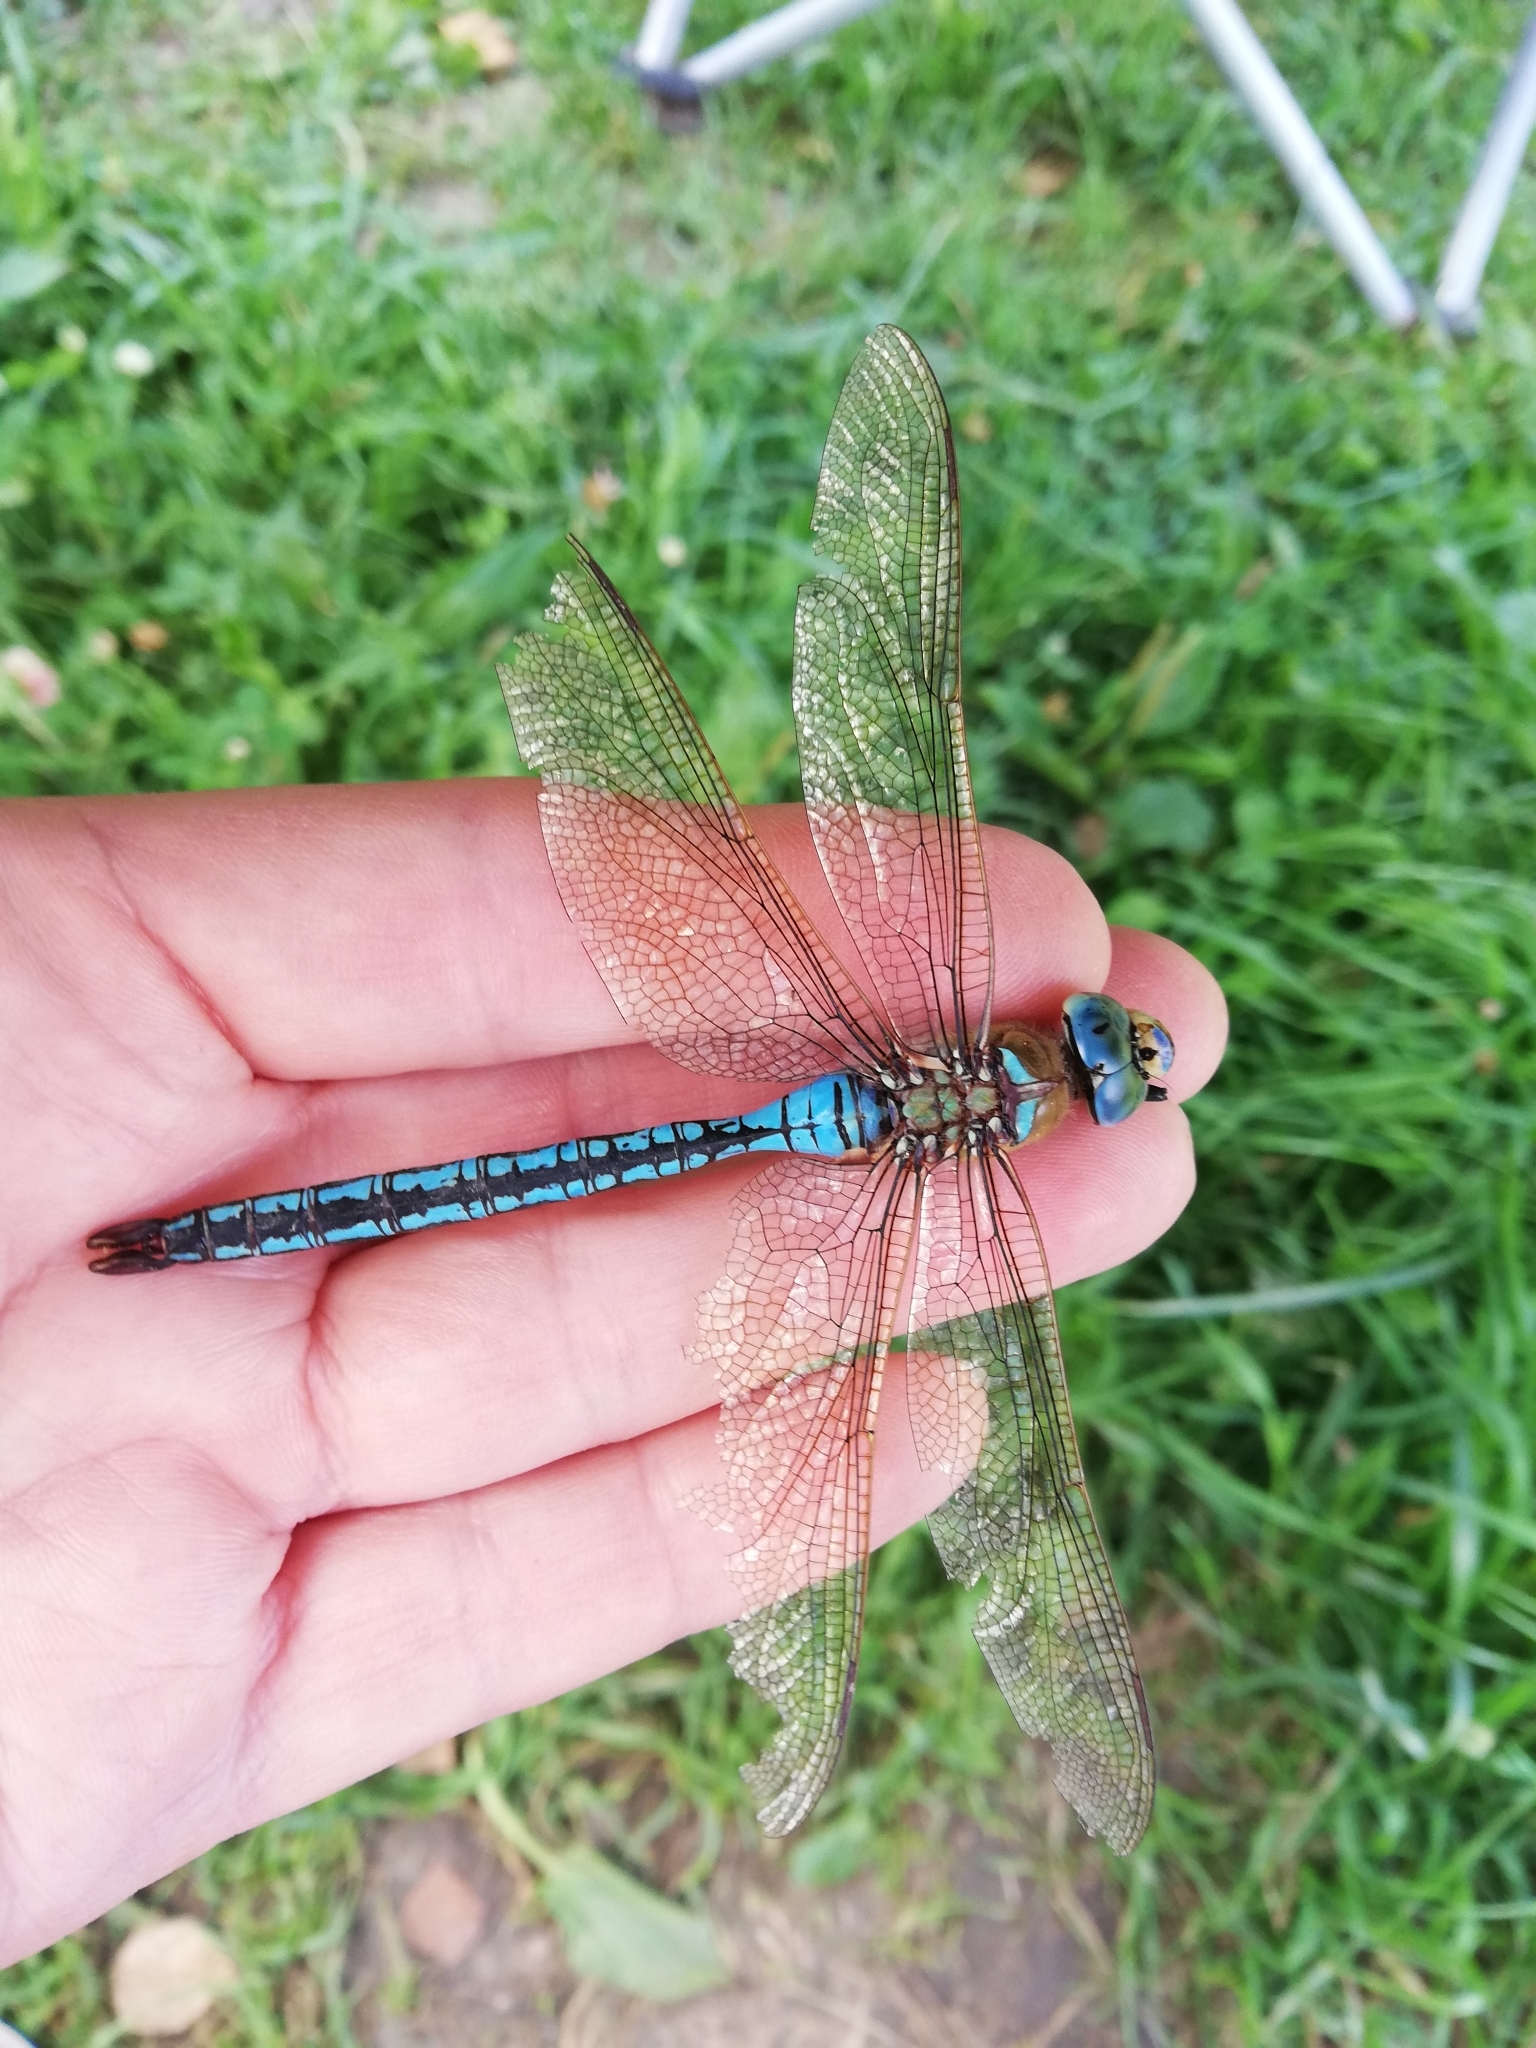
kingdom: Animalia
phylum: Arthropoda
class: Insecta
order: Odonata
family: Aeshnidae
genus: Anax
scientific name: Anax imperator
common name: Emperor dragonfly
